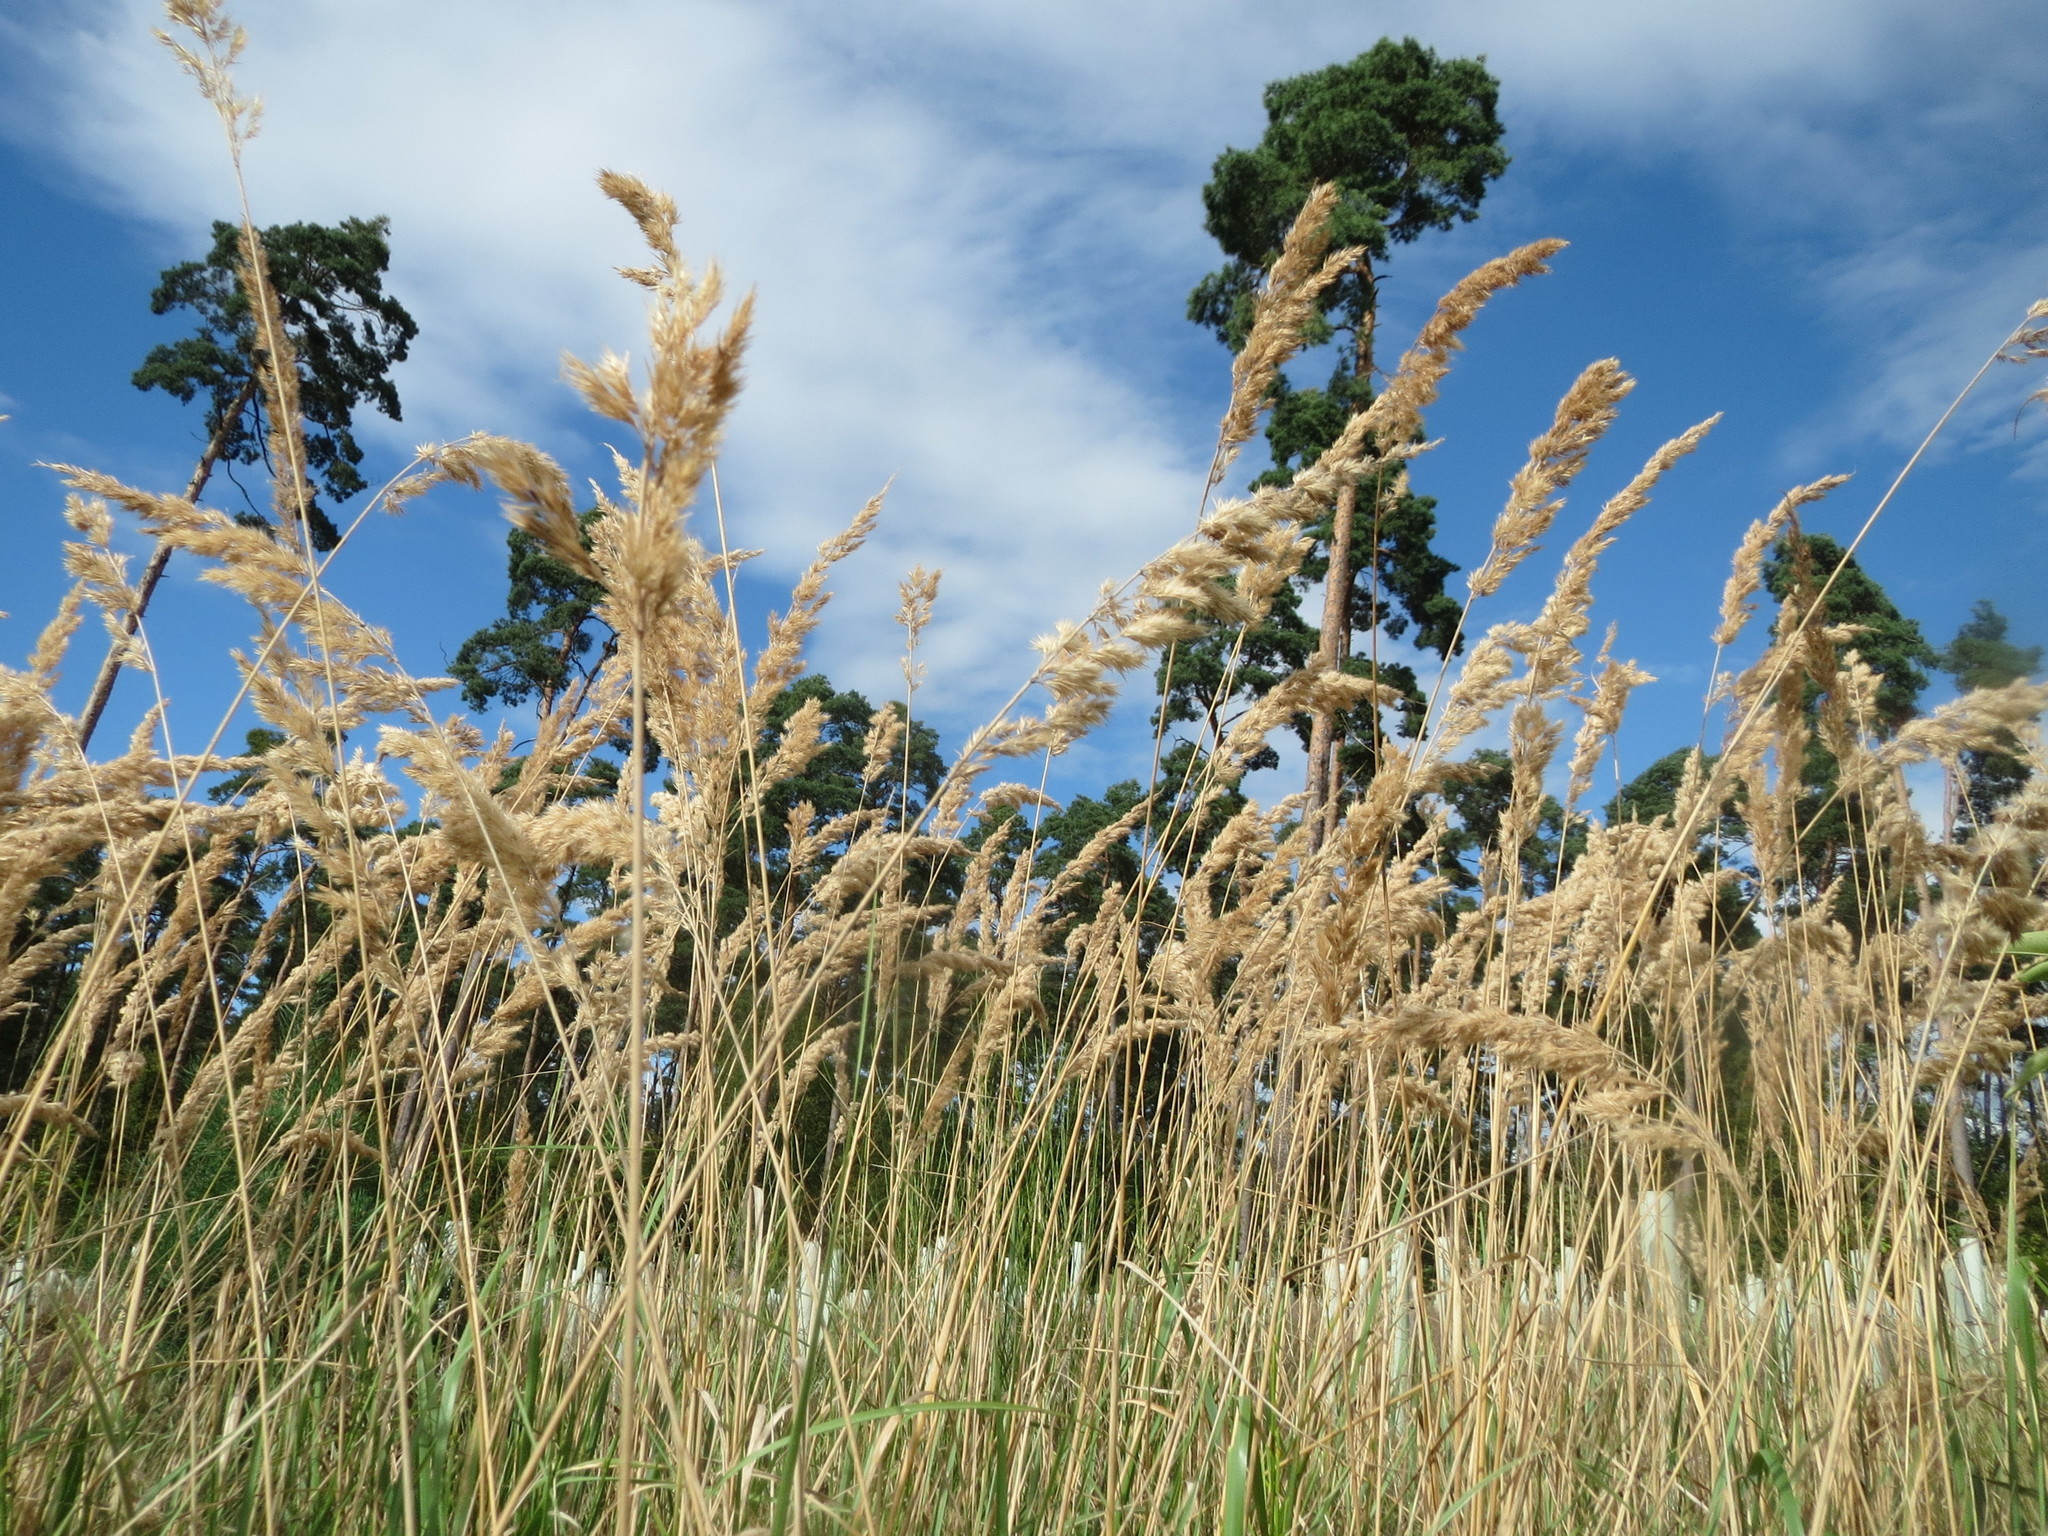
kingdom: Plantae
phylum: Tracheophyta
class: Liliopsida
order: Poales
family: Poaceae
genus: Calamagrostis
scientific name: Calamagrostis epigejos
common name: Wood small-reed
